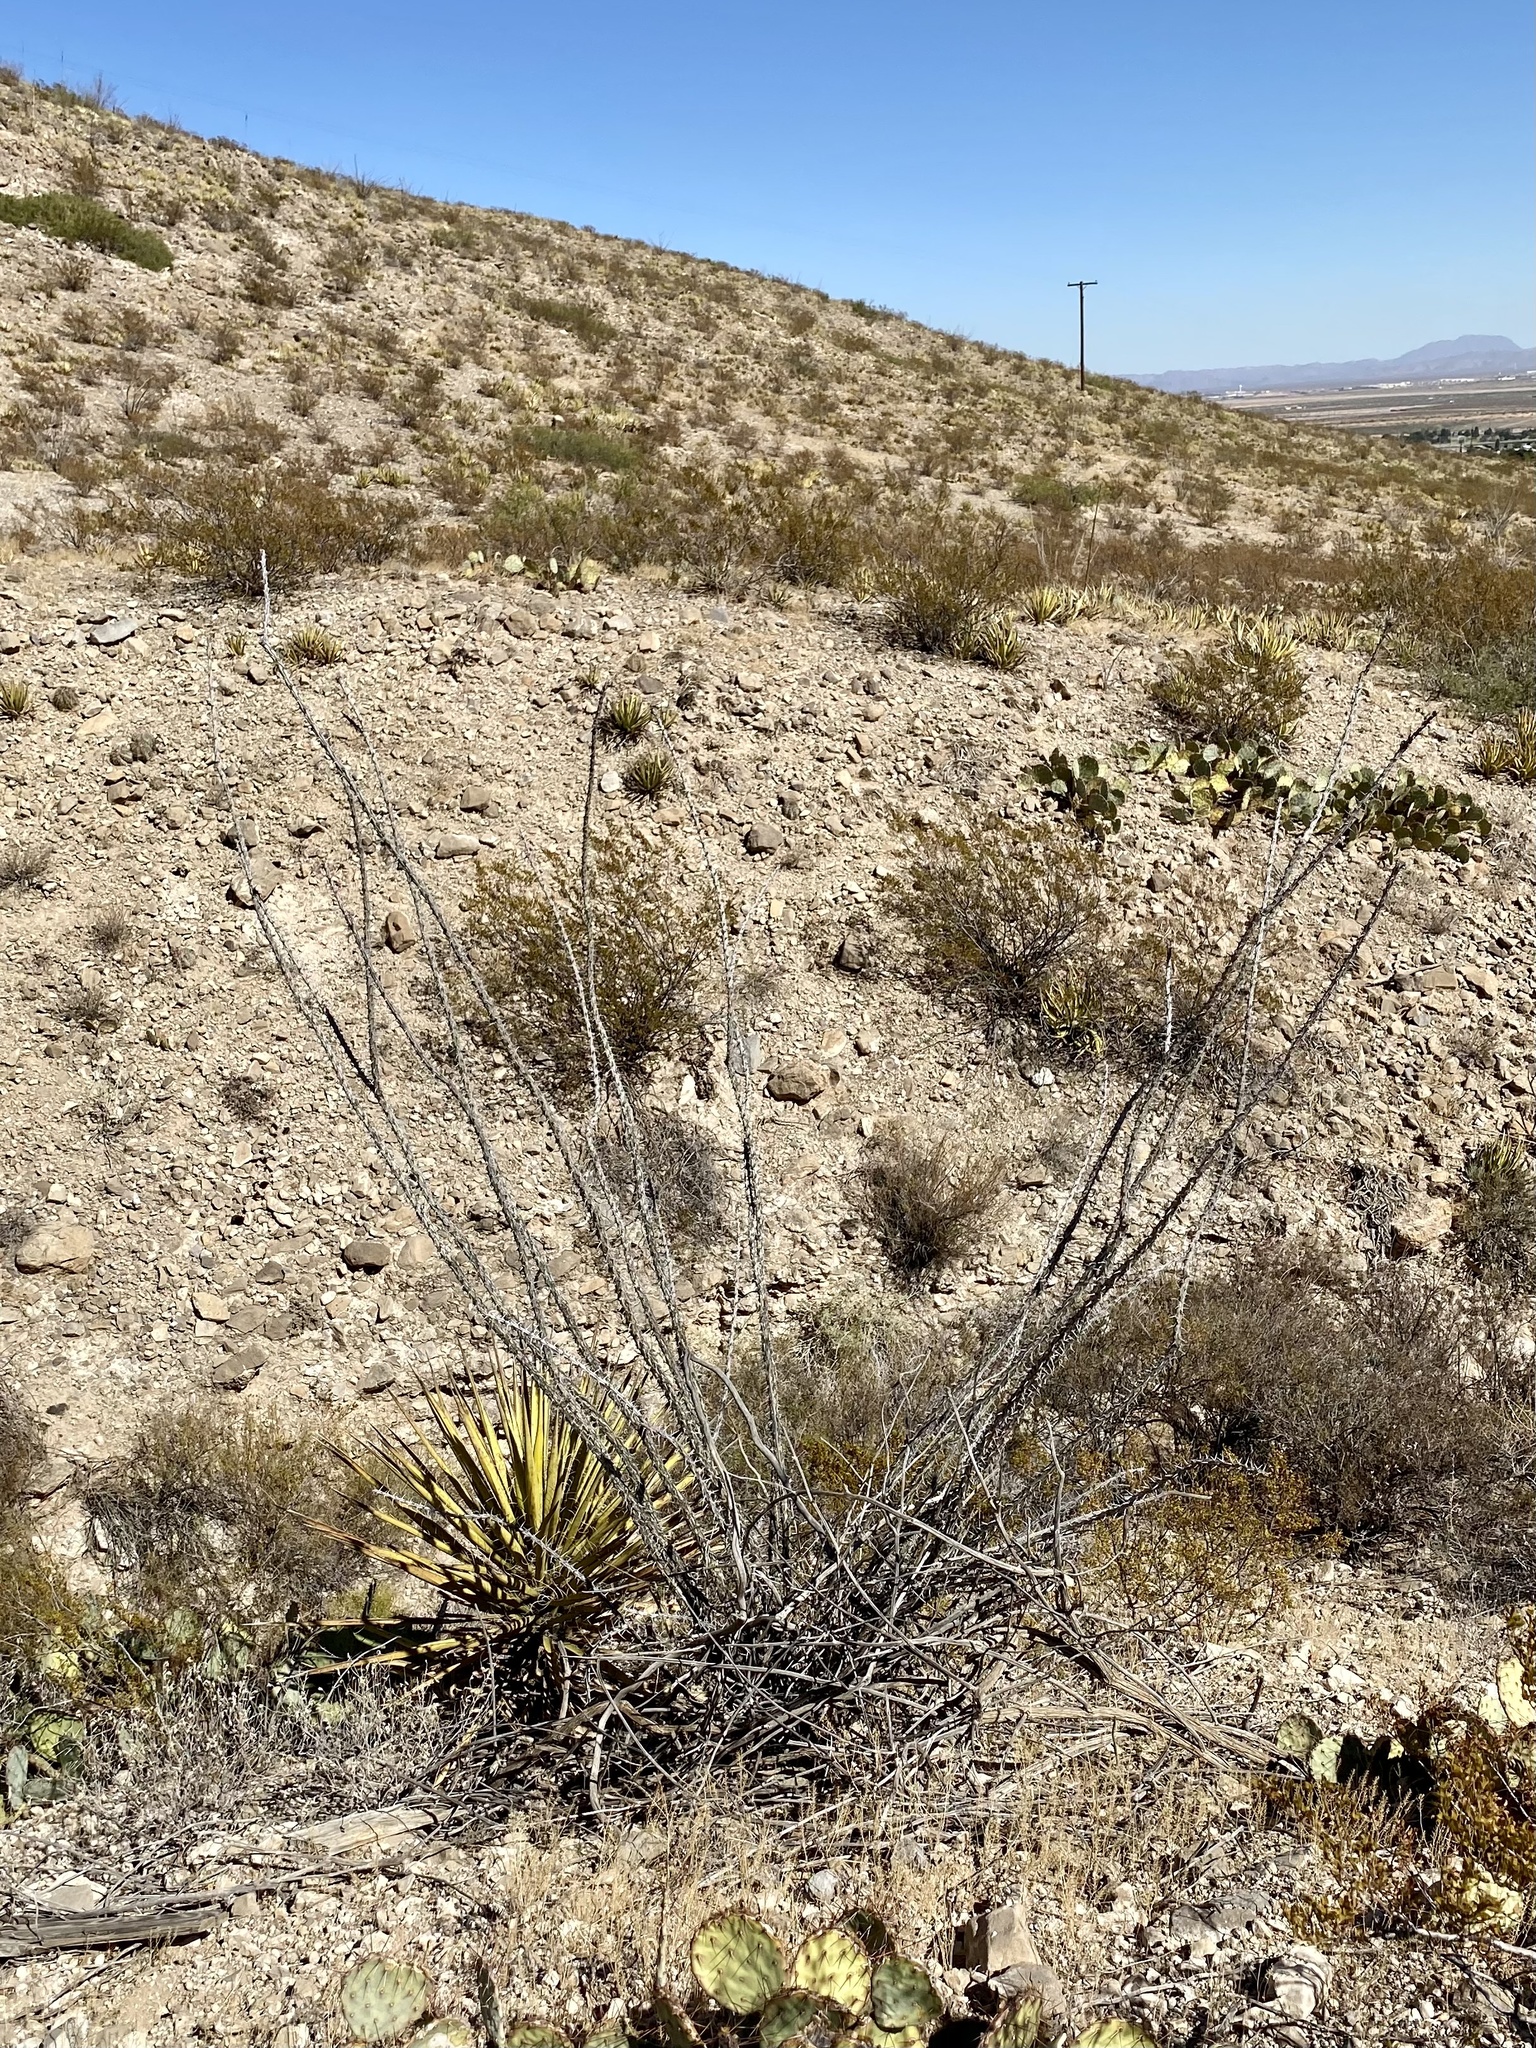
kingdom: Plantae
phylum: Tracheophyta
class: Magnoliopsida
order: Ericales
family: Fouquieriaceae
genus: Fouquieria
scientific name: Fouquieria splendens
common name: Vine-cactus
